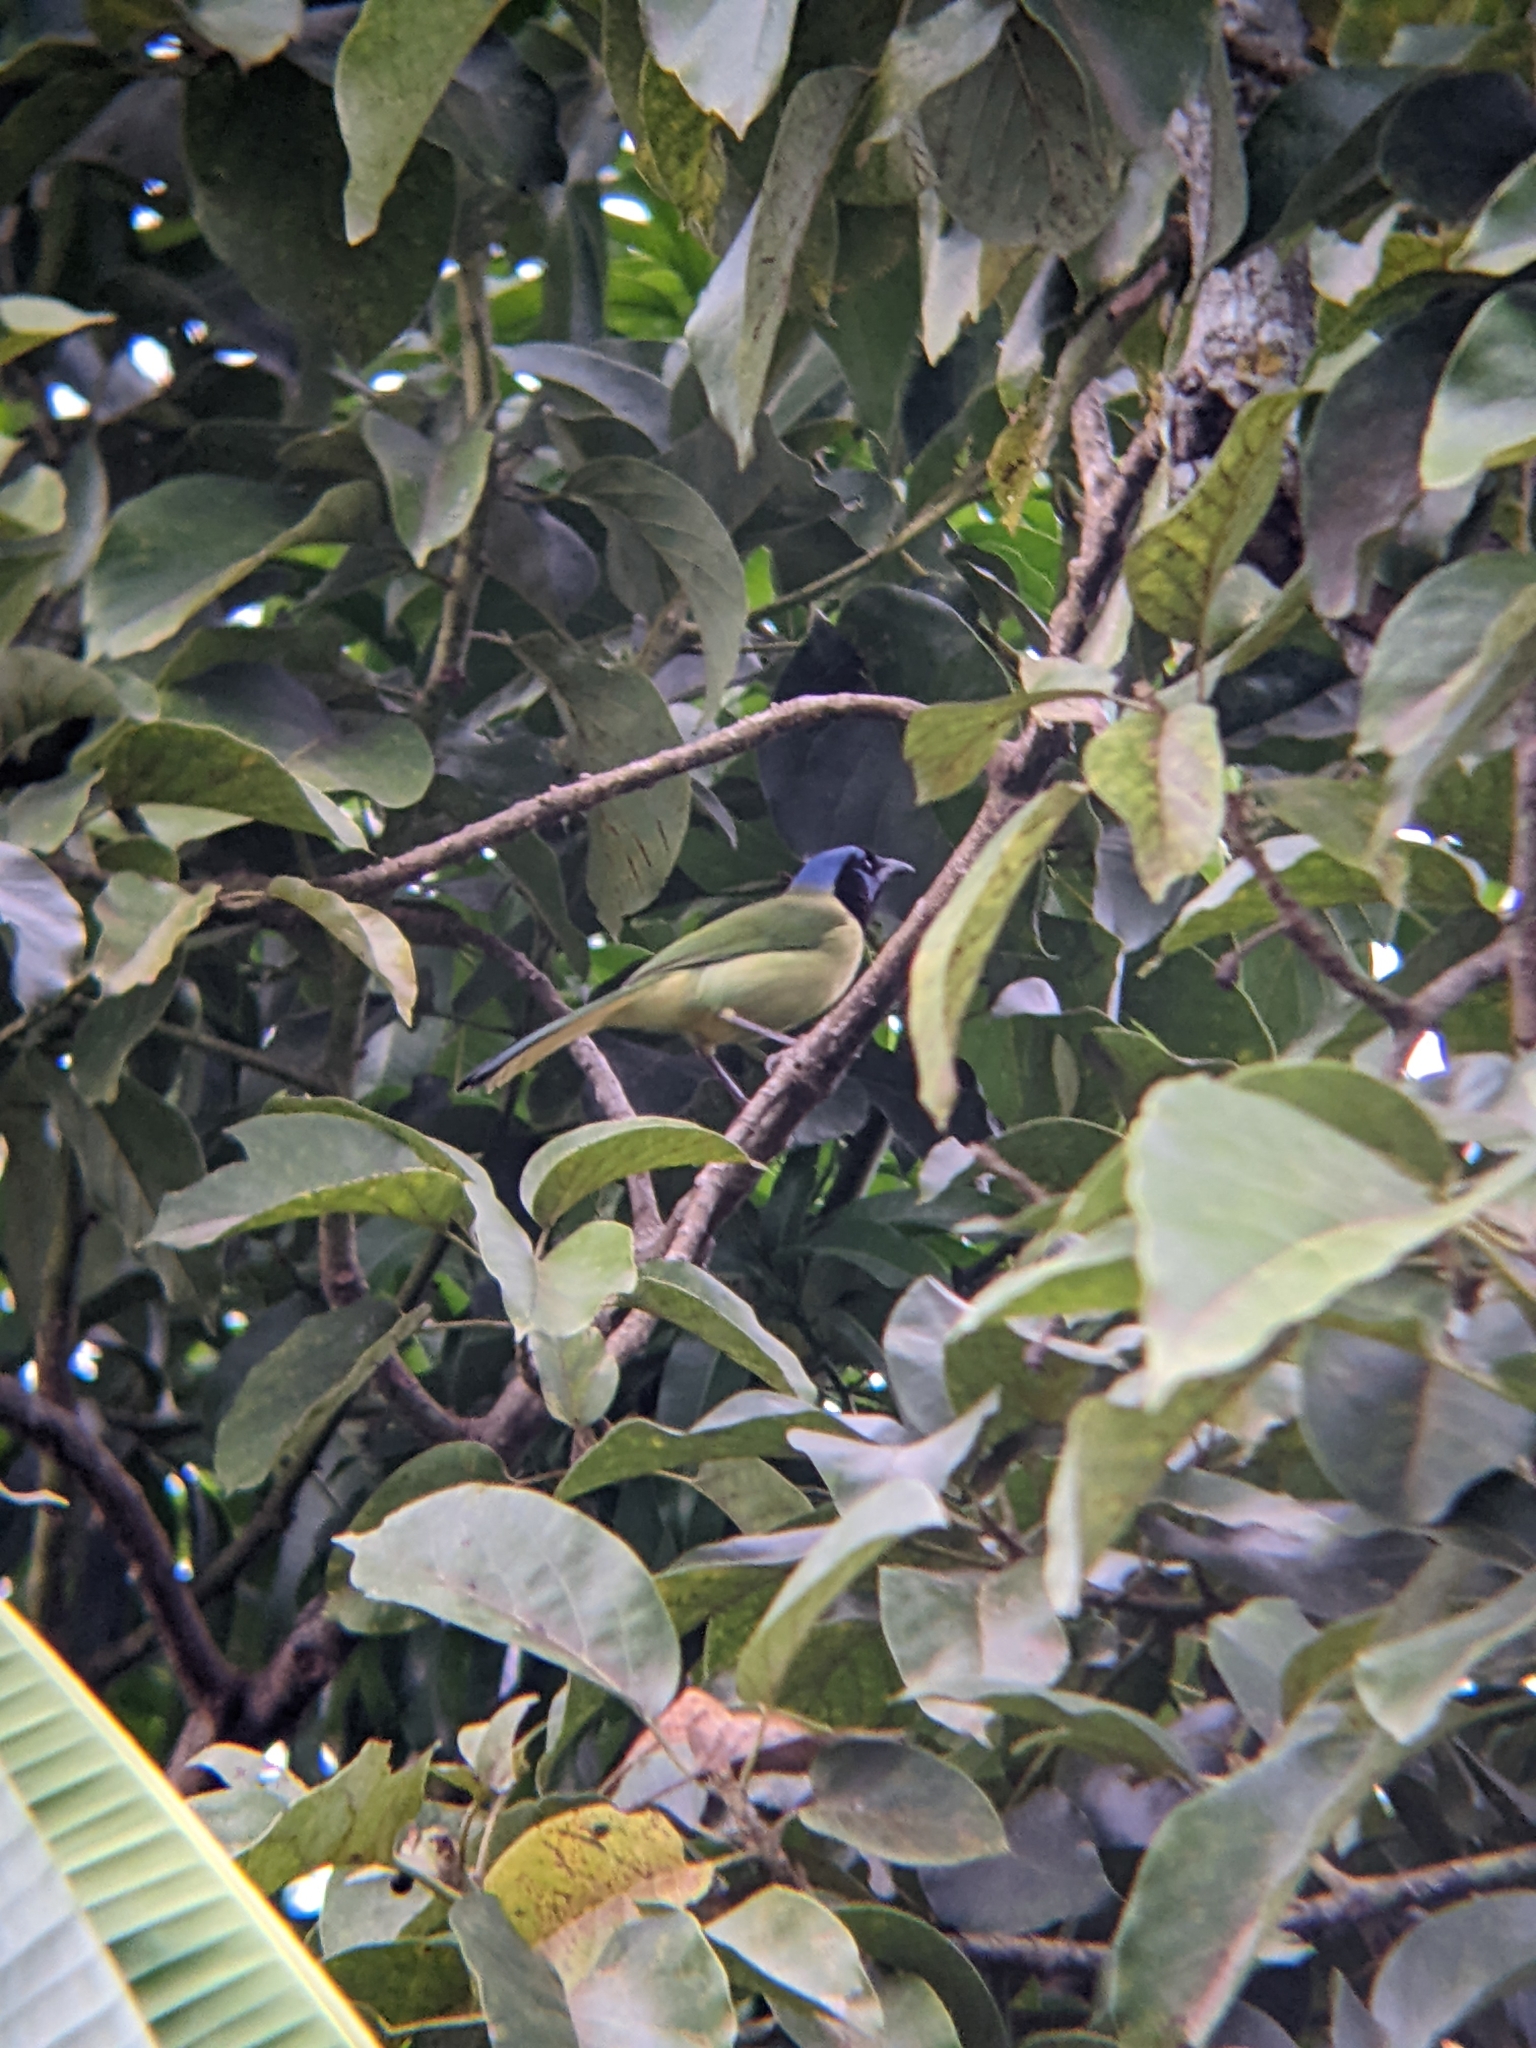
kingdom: Animalia
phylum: Chordata
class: Aves
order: Passeriformes
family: Corvidae
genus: Cyanocorax
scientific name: Cyanocorax yncas
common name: Green jay
